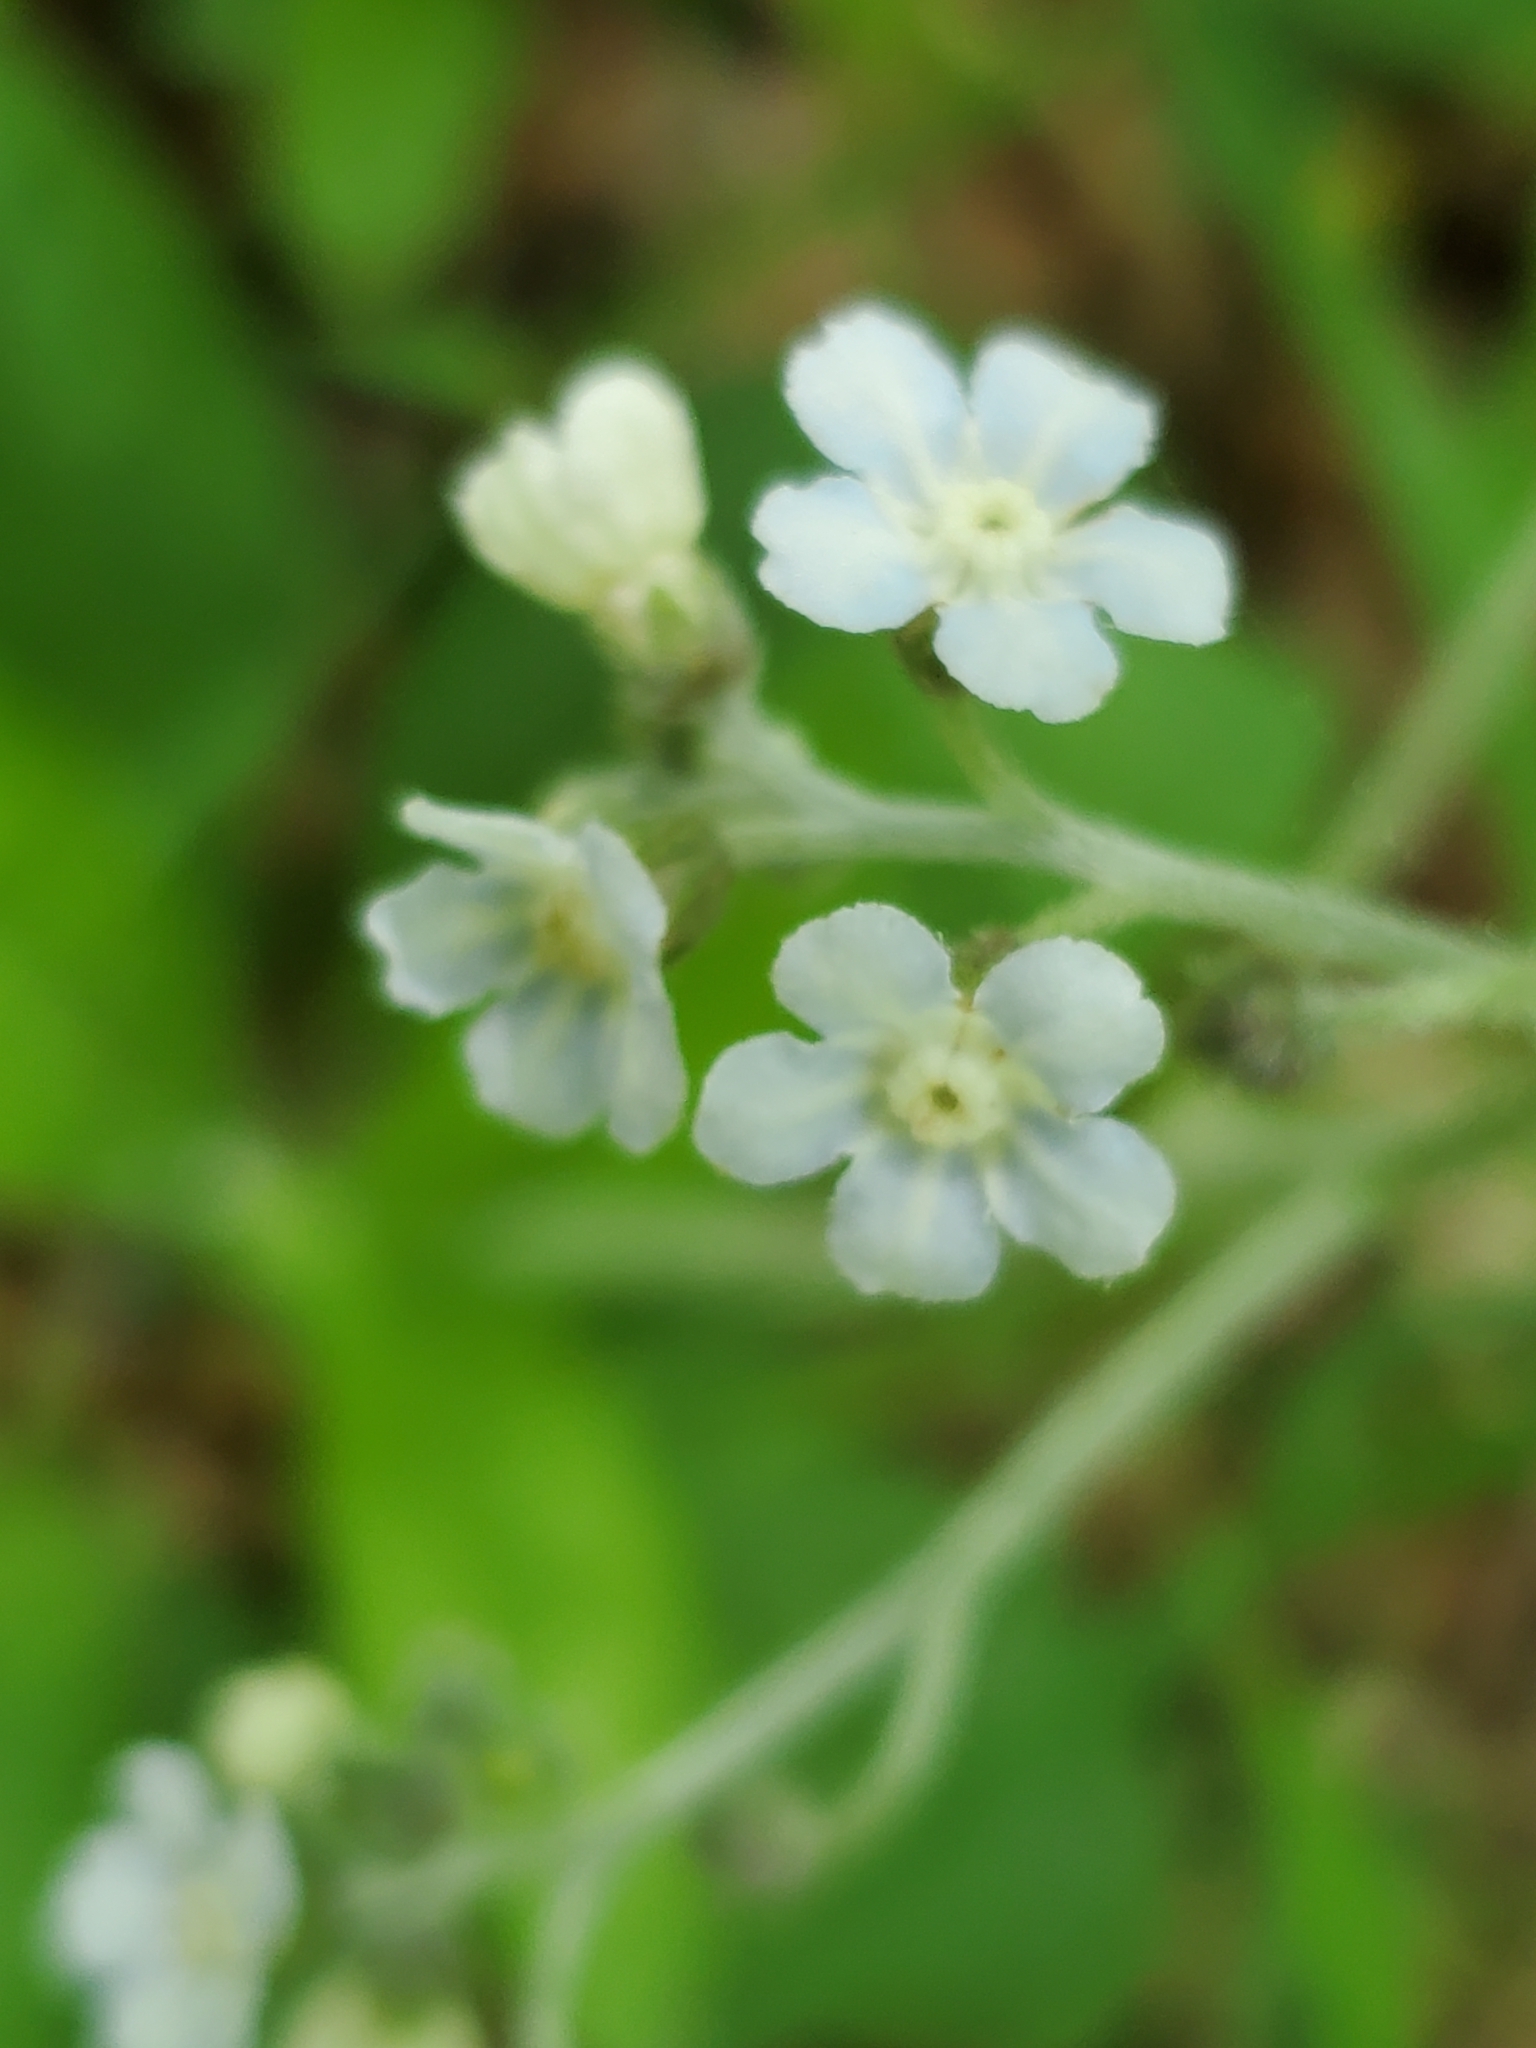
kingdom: Plantae
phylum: Tracheophyta
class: Magnoliopsida
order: Boraginales
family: Boraginaceae
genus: Andersonglossum
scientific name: Andersonglossum virginianum
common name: Wild comfrey
